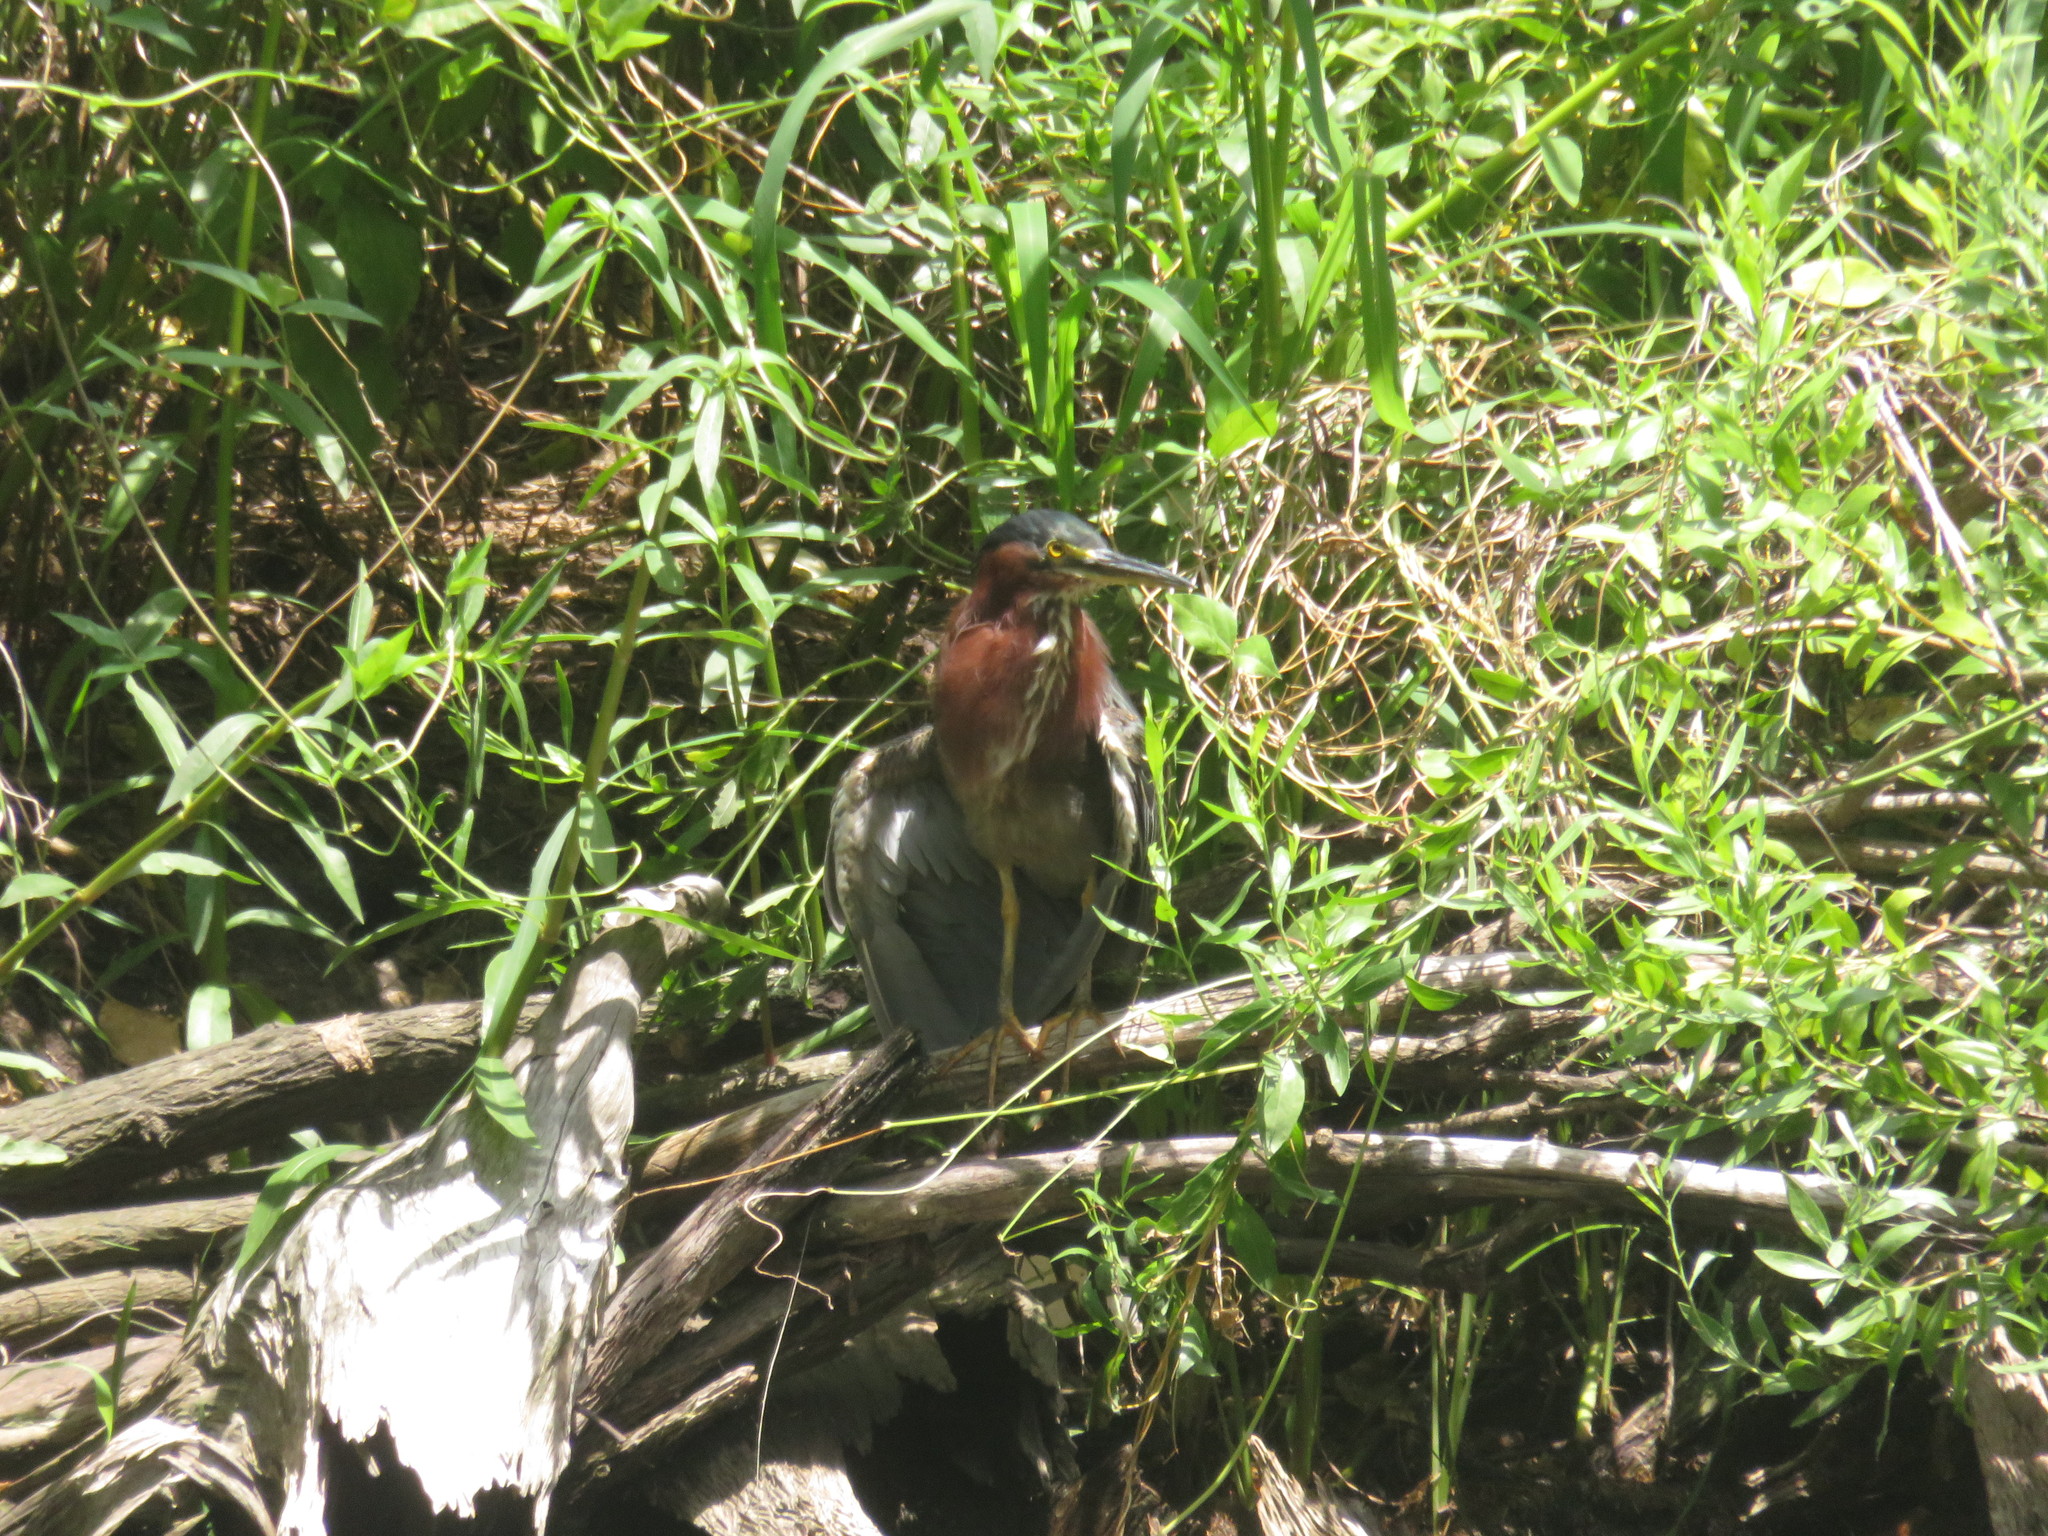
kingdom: Animalia
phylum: Chordata
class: Aves
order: Pelecaniformes
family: Ardeidae
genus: Butorides
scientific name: Butorides virescens
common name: Green heron
